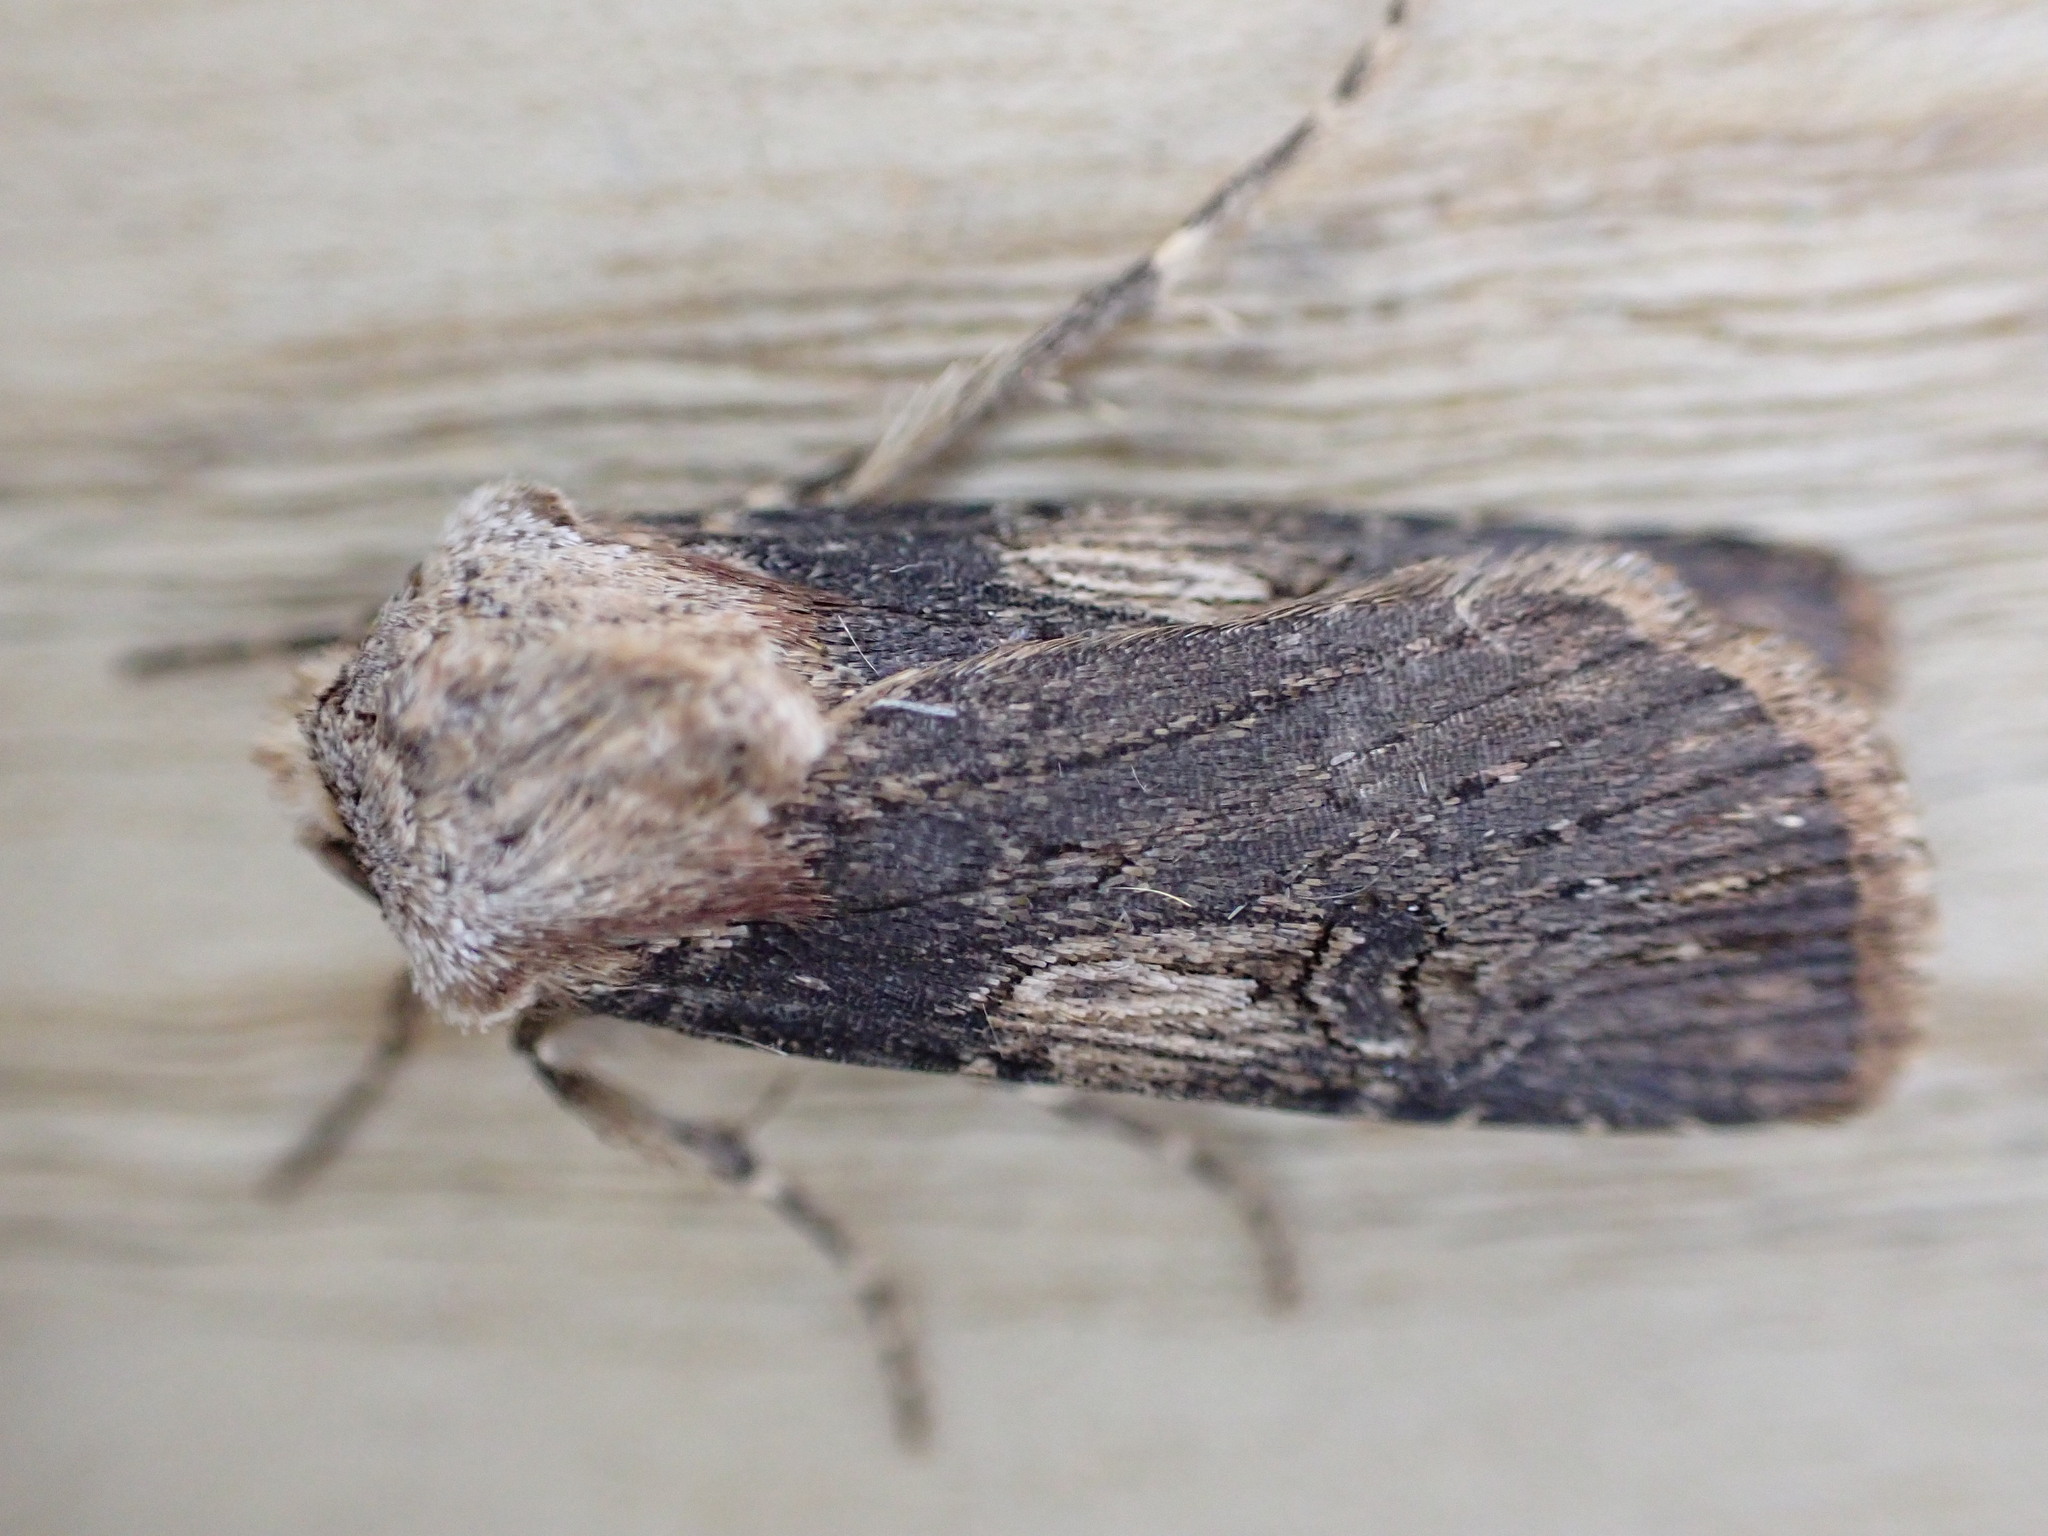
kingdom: Animalia
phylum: Arthropoda
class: Insecta
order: Lepidoptera
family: Noctuidae
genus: Agrotis
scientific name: Agrotis puta
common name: Shuttle-shaped dart
